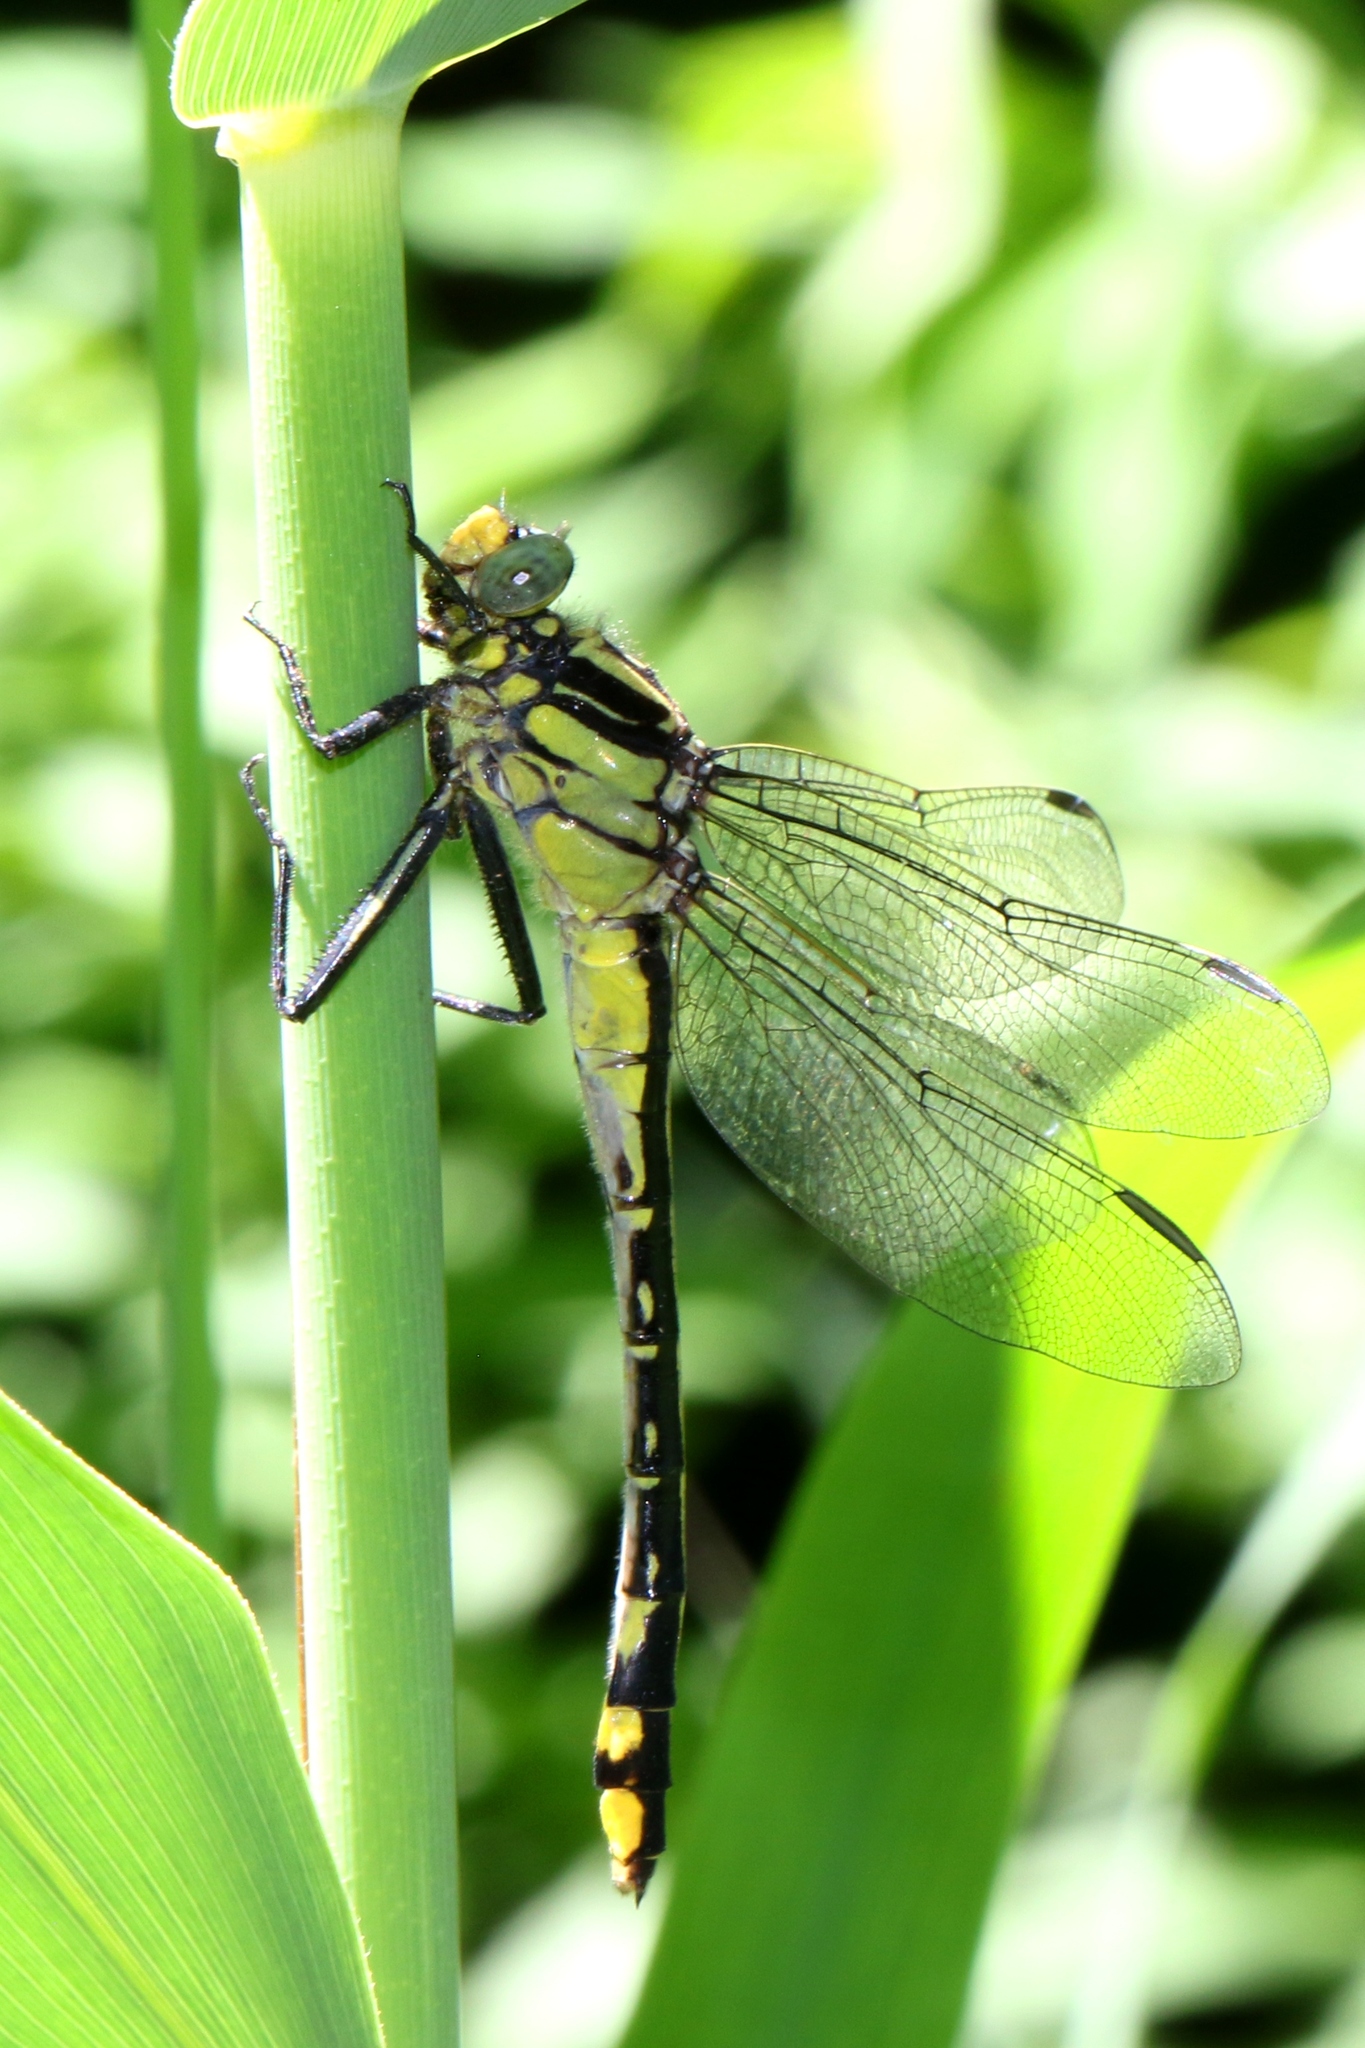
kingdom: Animalia
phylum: Arthropoda
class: Insecta
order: Odonata
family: Gomphidae
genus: Gomphurus
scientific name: Gomphurus fraternus
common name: Midland clubtail
